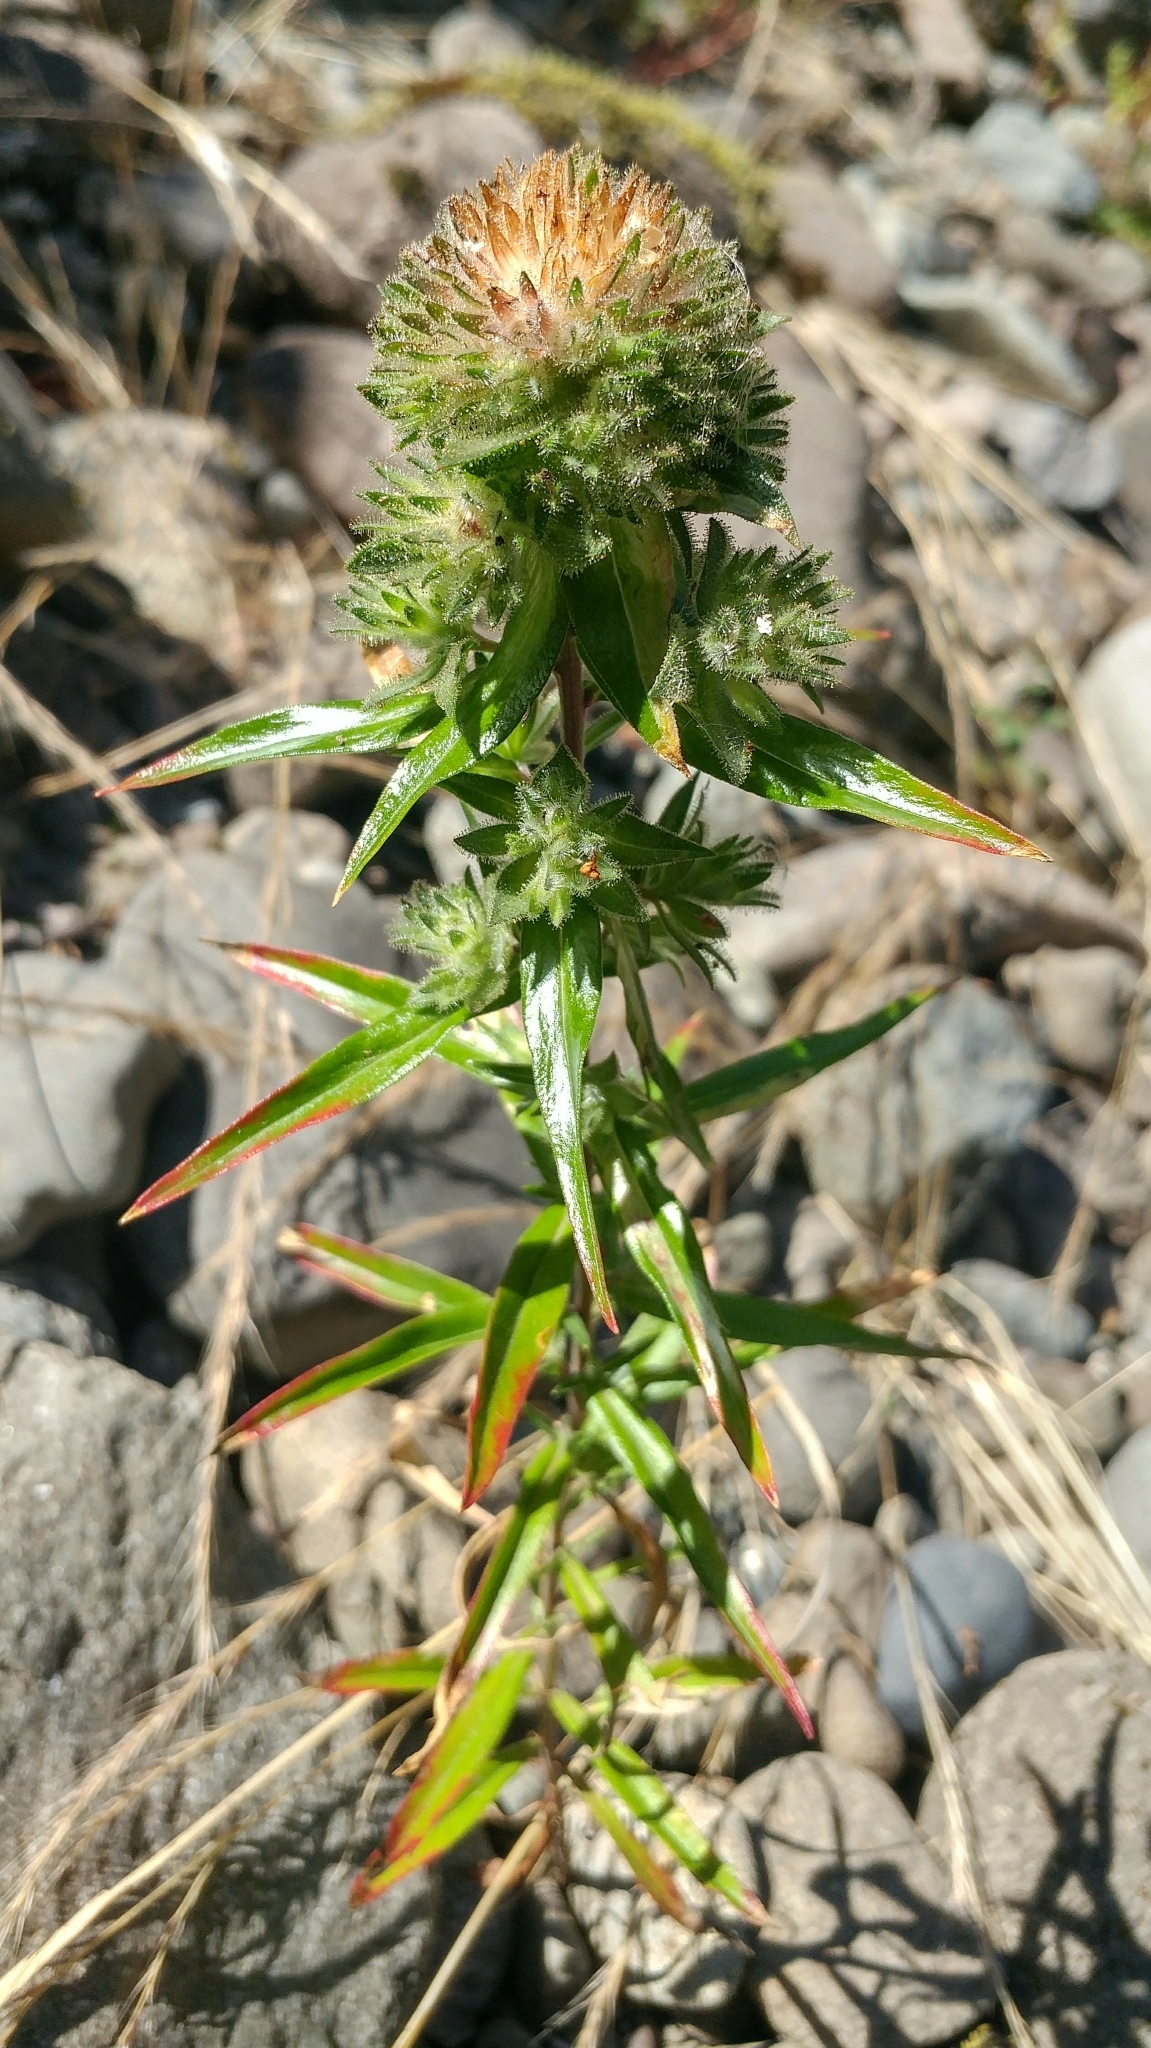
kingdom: Plantae
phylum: Tracheophyta
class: Magnoliopsida
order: Ericales
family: Polemoniaceae
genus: Collomia
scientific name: Collomia grandiflora
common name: California strawflower
